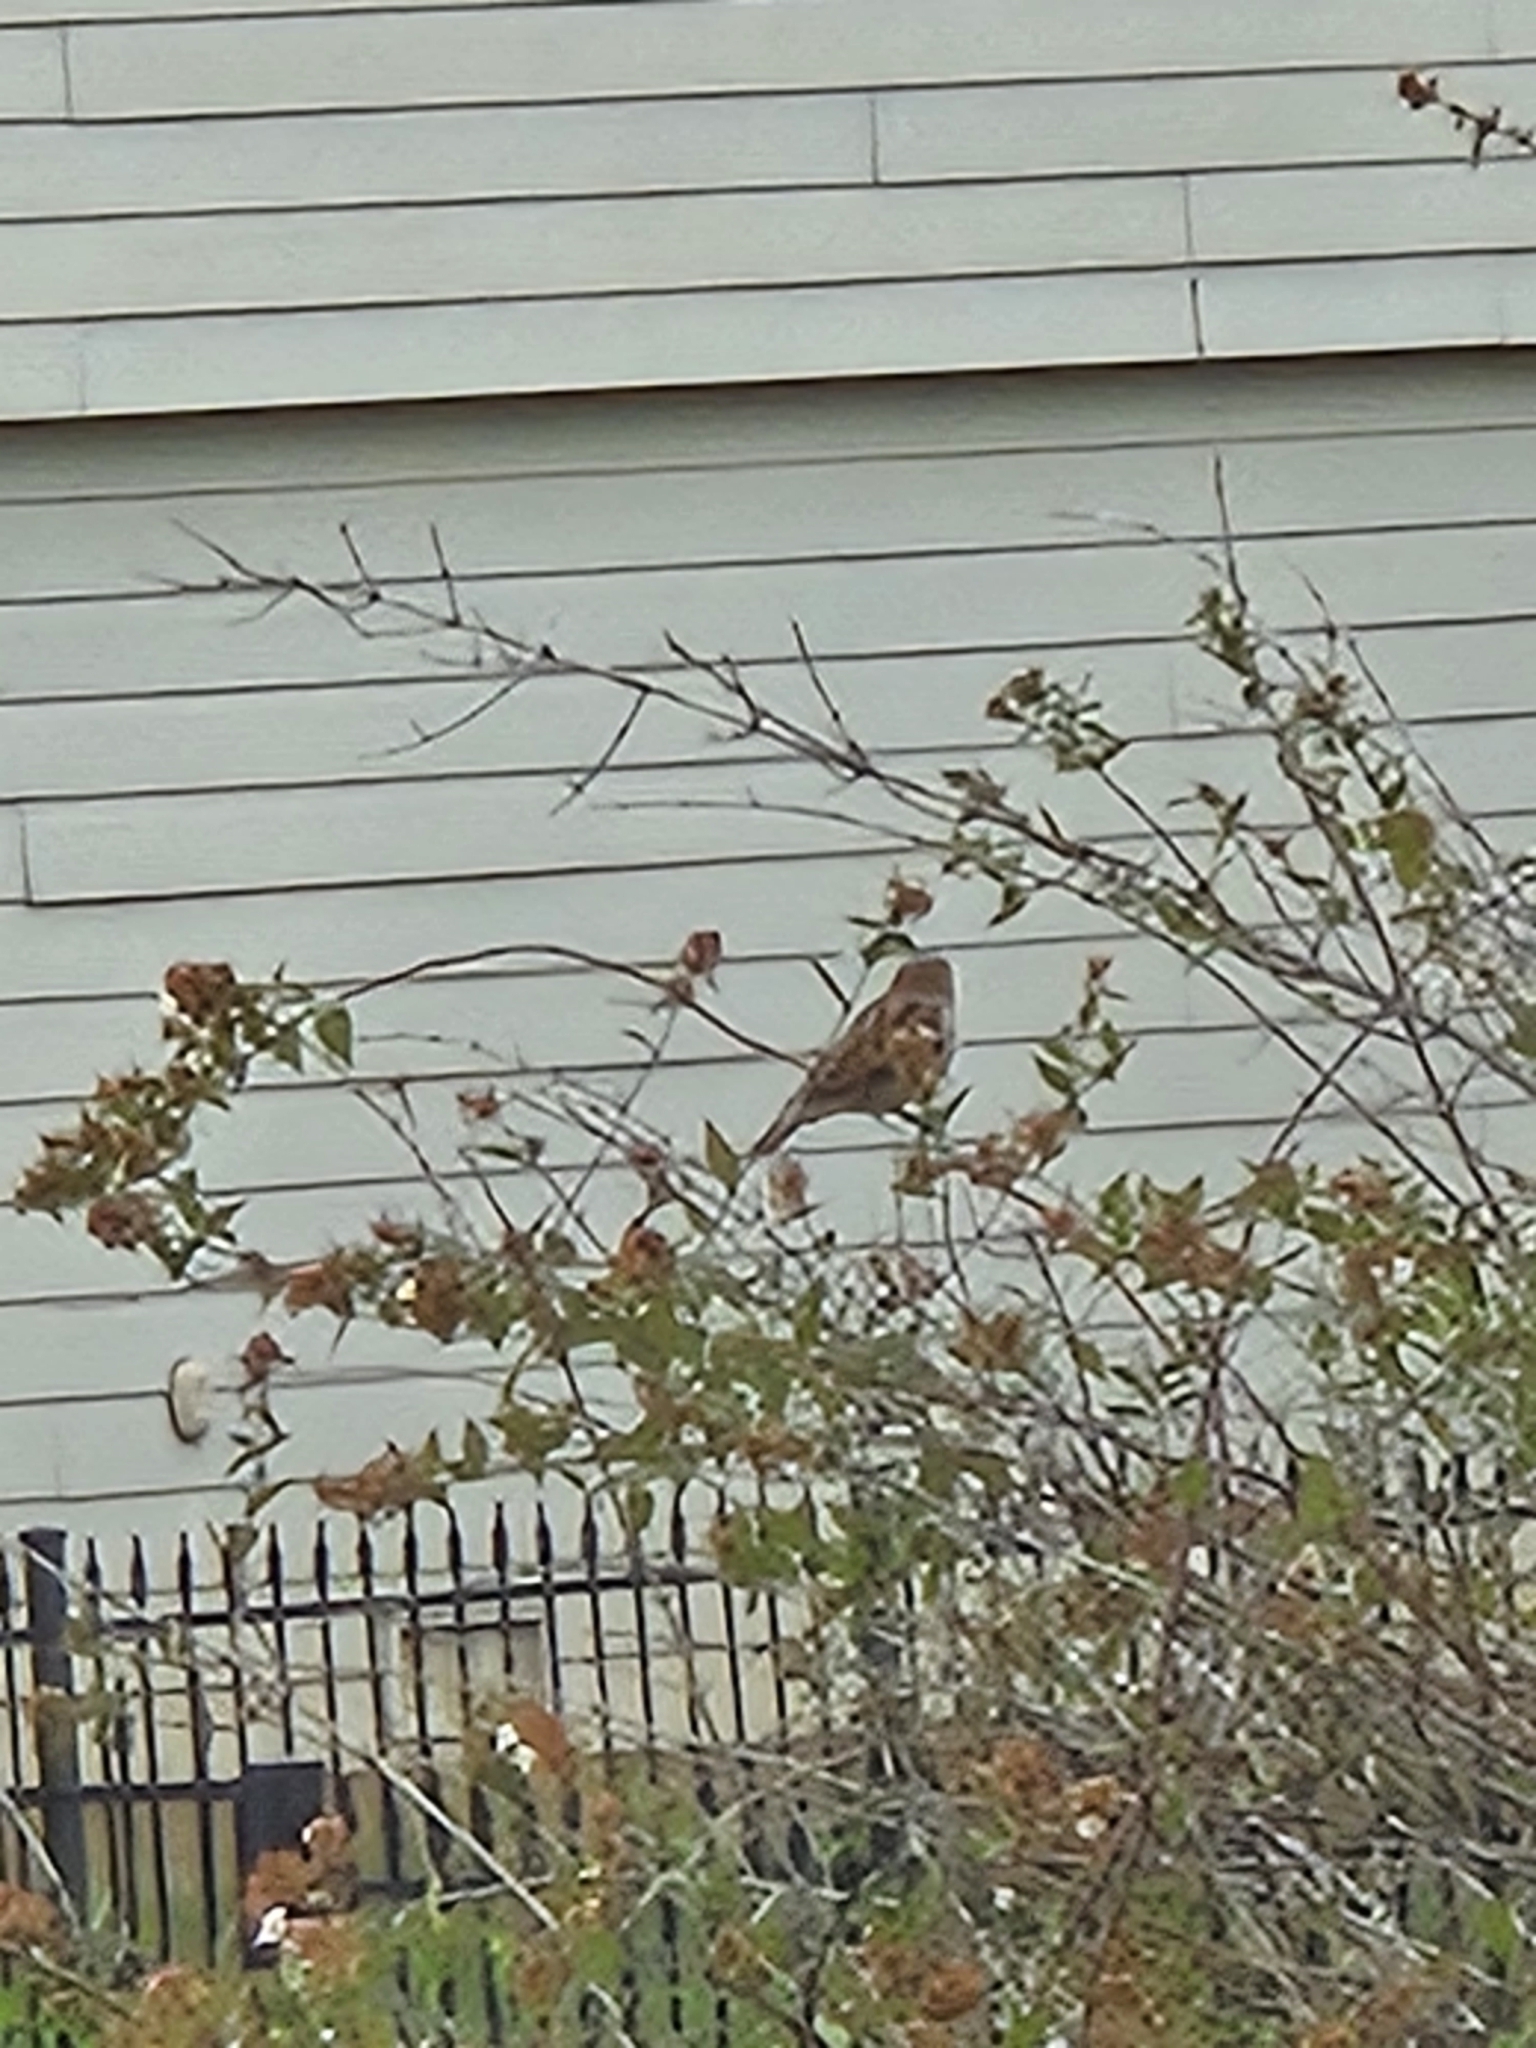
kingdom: Animalia
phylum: Chordata
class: Aves
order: Passeriformes
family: Passeridae
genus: Passer
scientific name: Passer domesticus
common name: House sparrow
